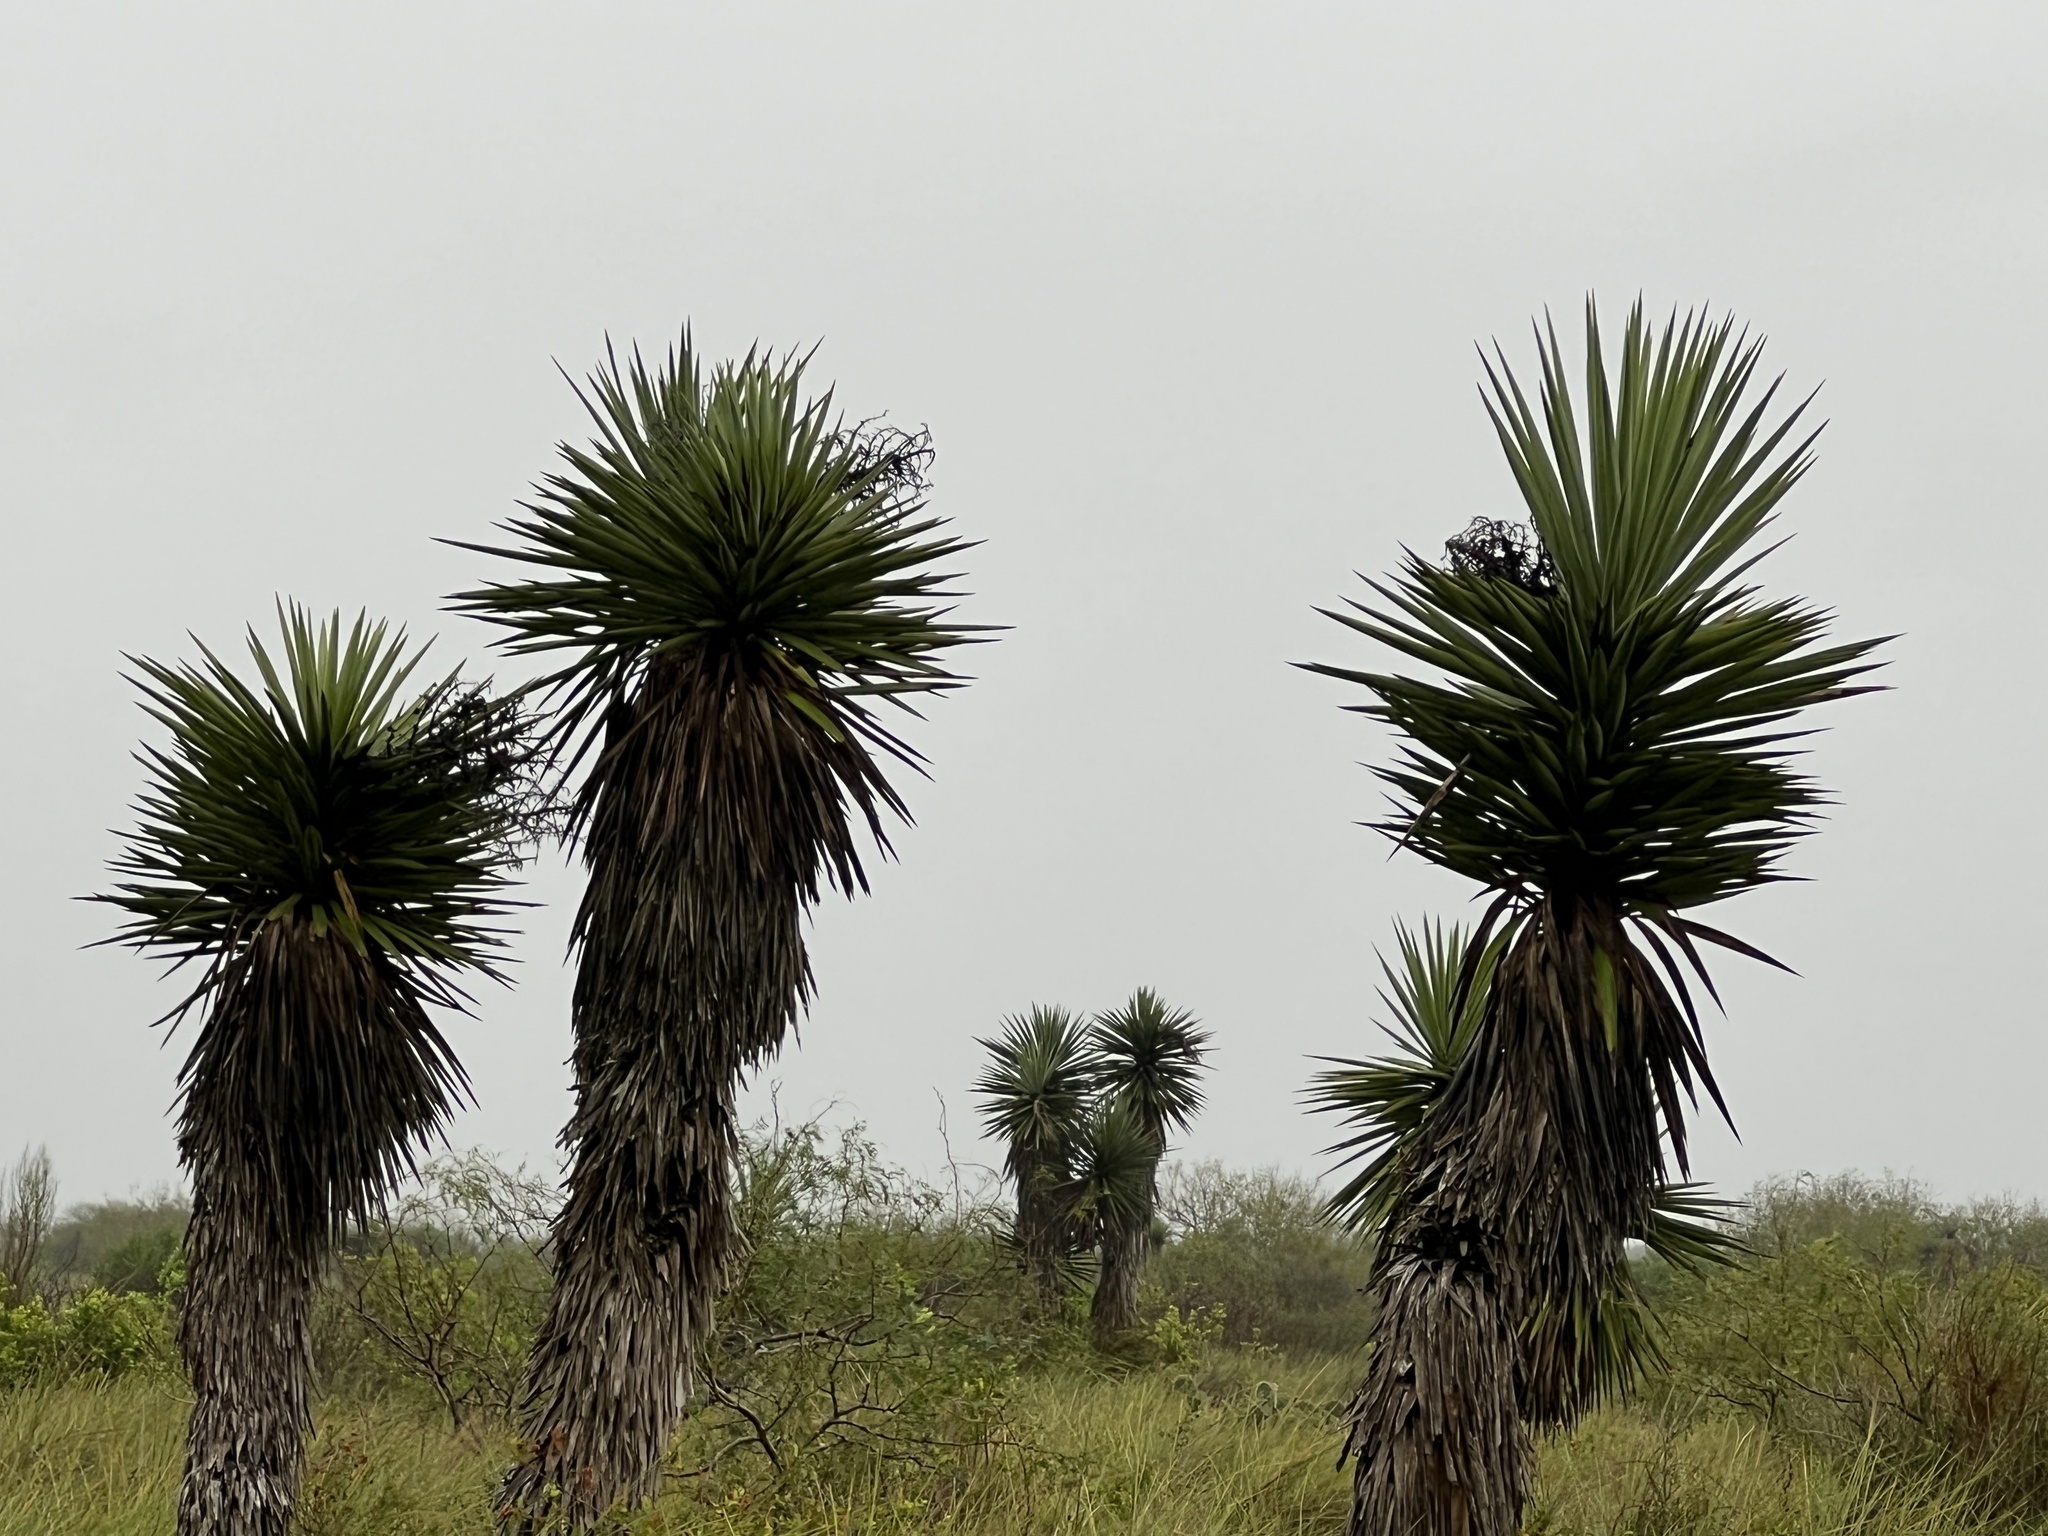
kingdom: Plantae
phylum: Tracheophyta
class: Liliopsida
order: Asparagales
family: Asparagaceae
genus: Yucca
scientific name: Yucca treculiana
